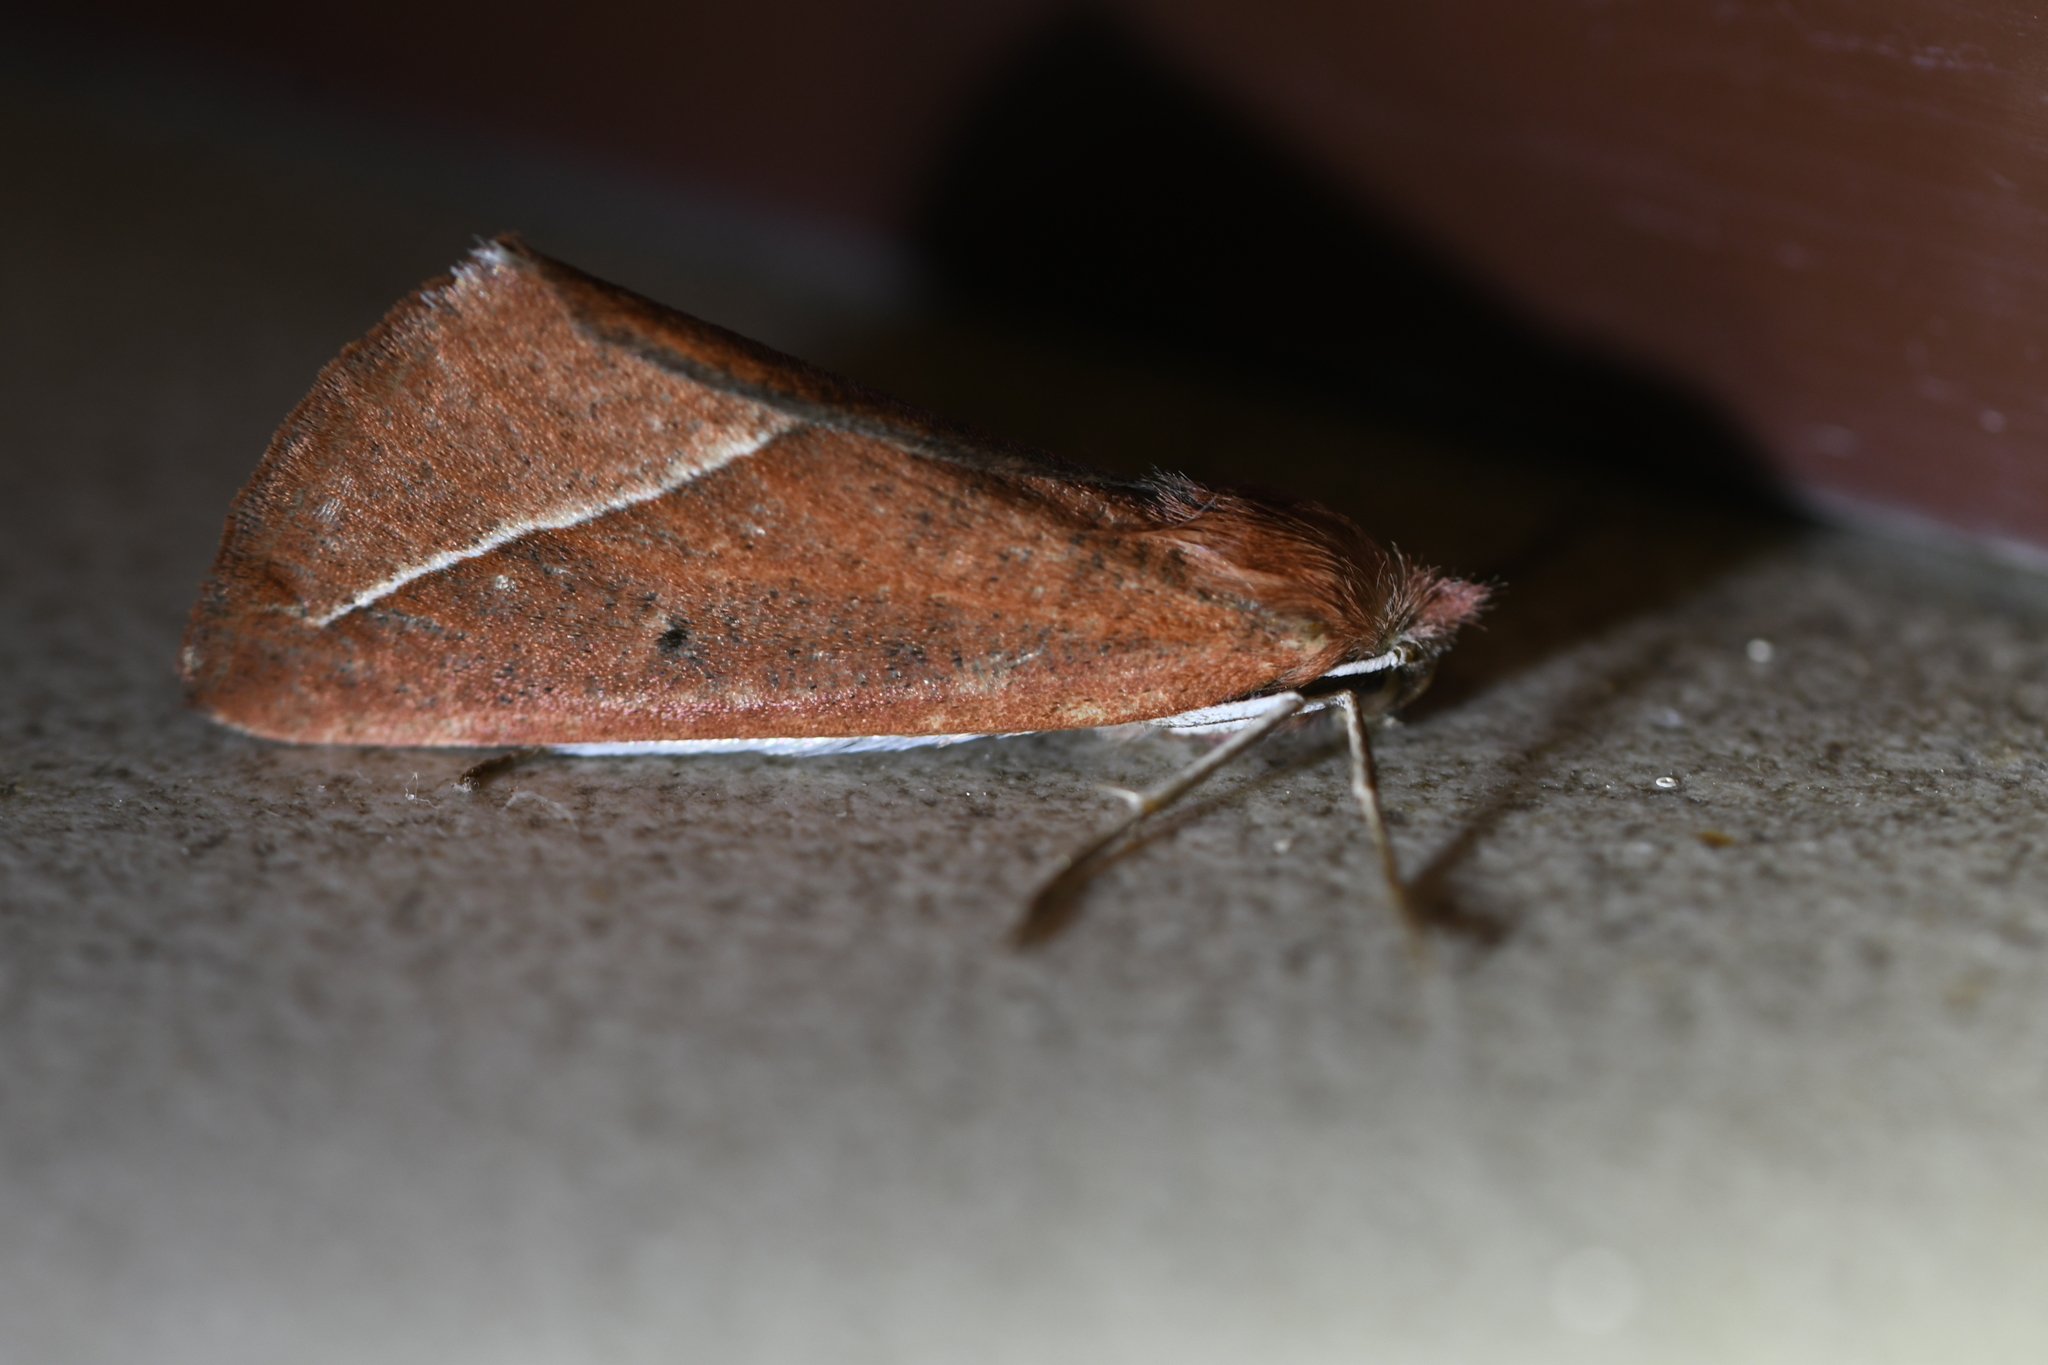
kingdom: Animalia
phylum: Arthropoda
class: Insecta
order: Lepidoptera
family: Geometridae
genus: Compsoptera
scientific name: Compsoptera opacaria
